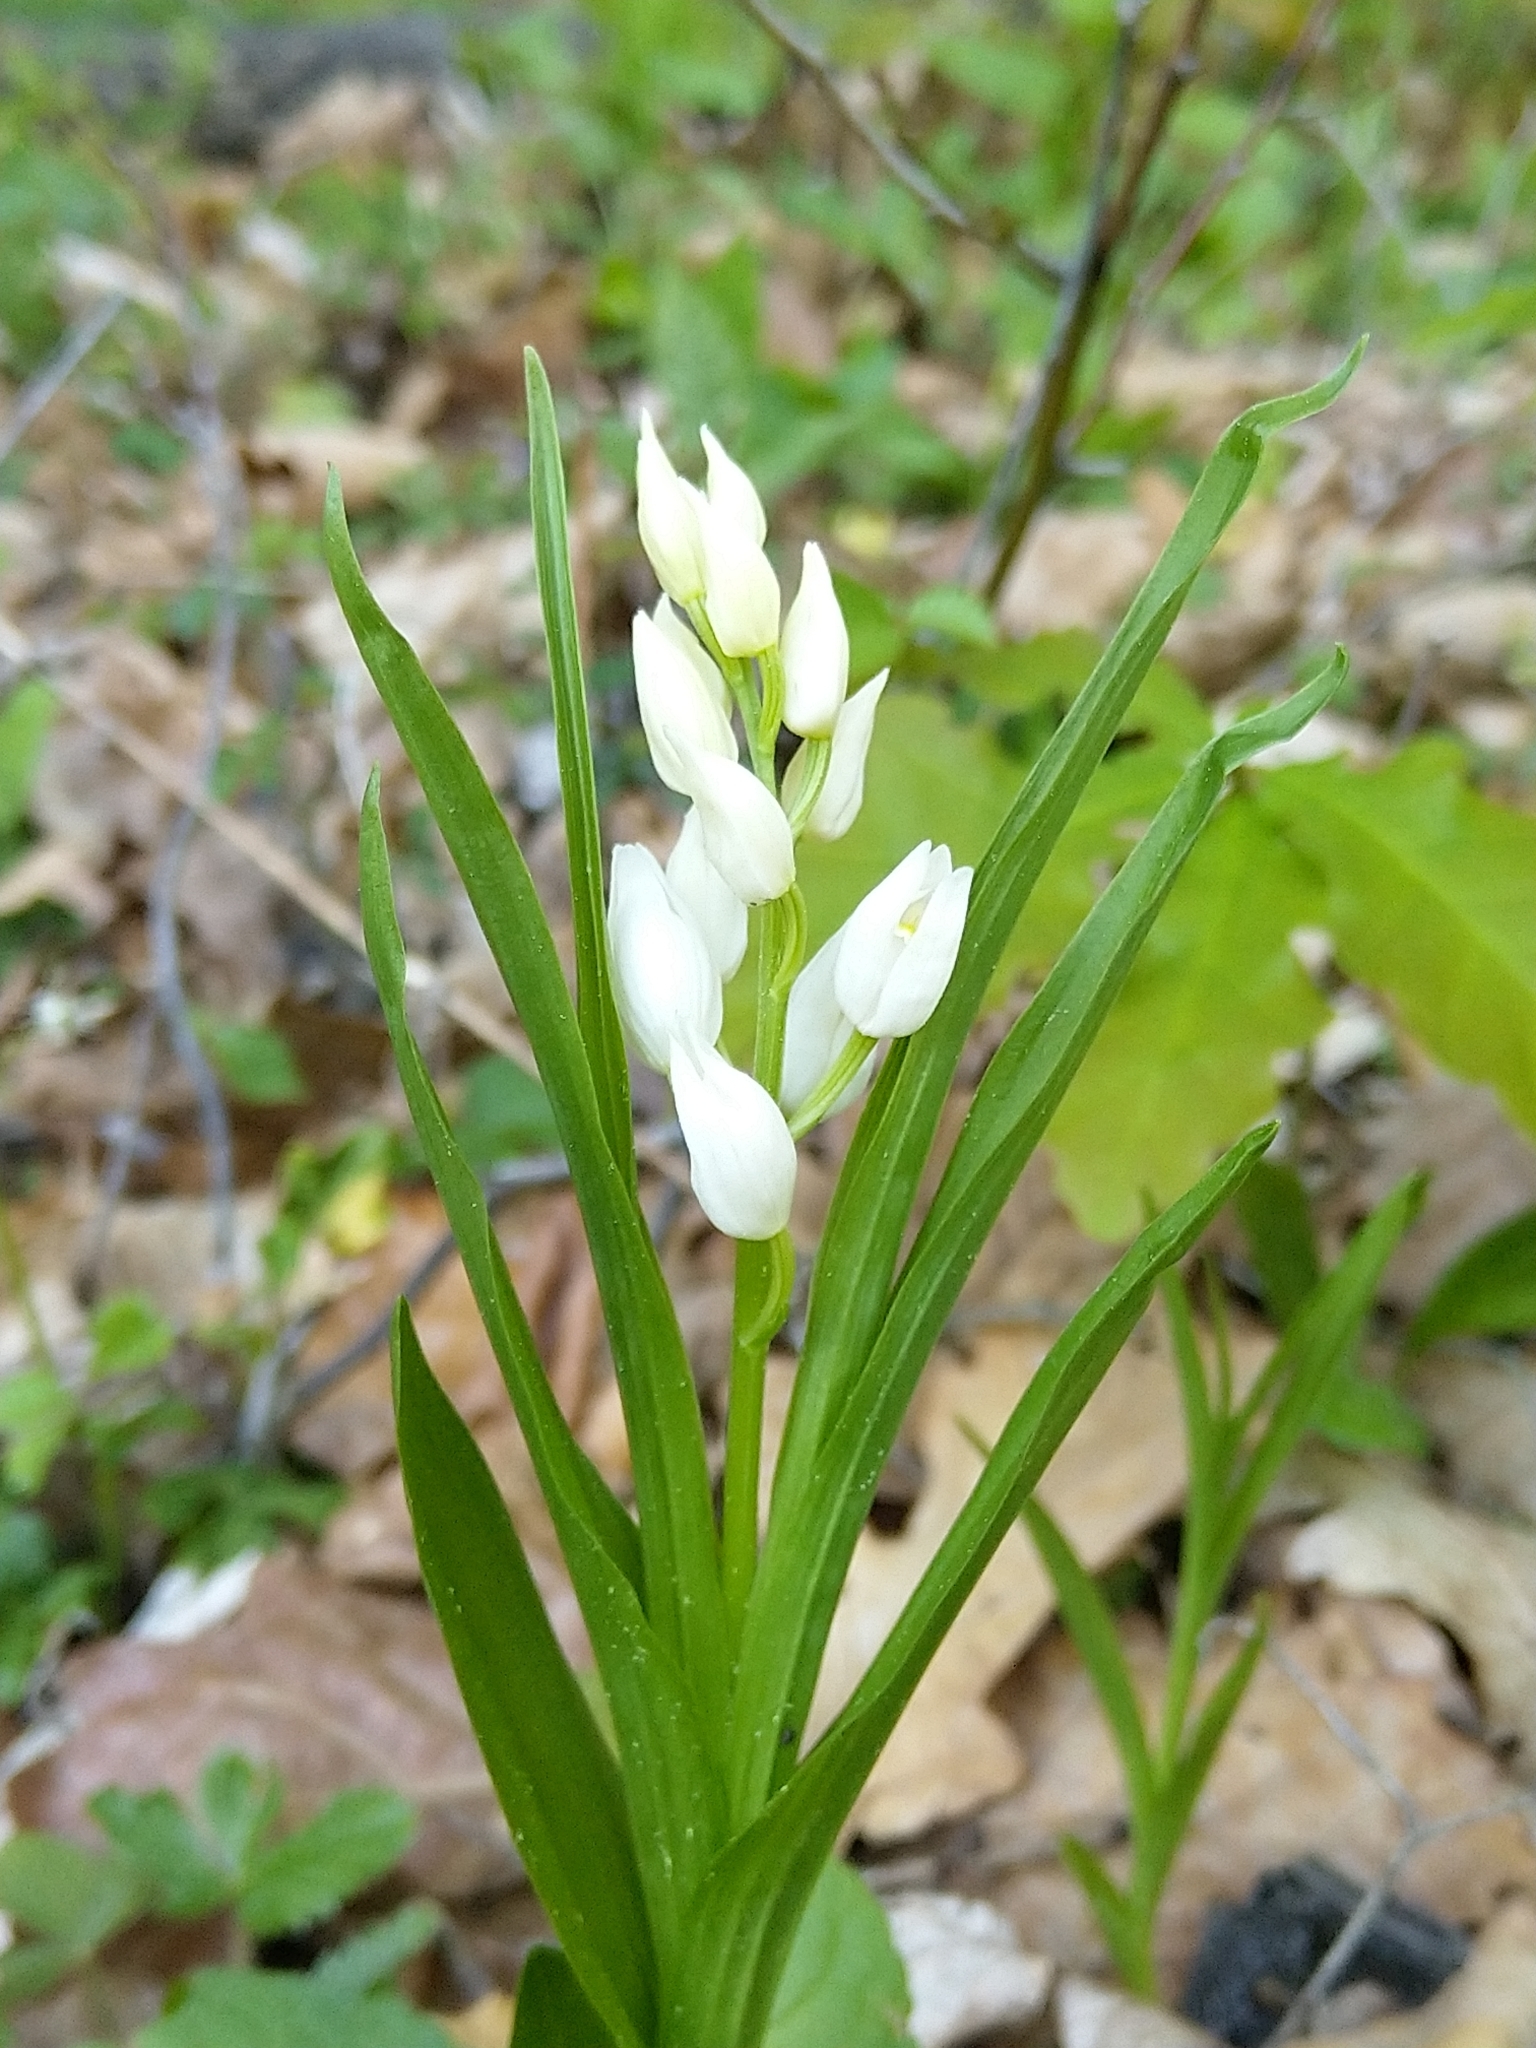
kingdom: Plantae
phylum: Tracheophyta
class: Liliopsida
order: Asparagales
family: Orchidaceae
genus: Cephalanthera
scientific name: Cephalanthera longifolia
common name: Narrow-leaved helleborine
